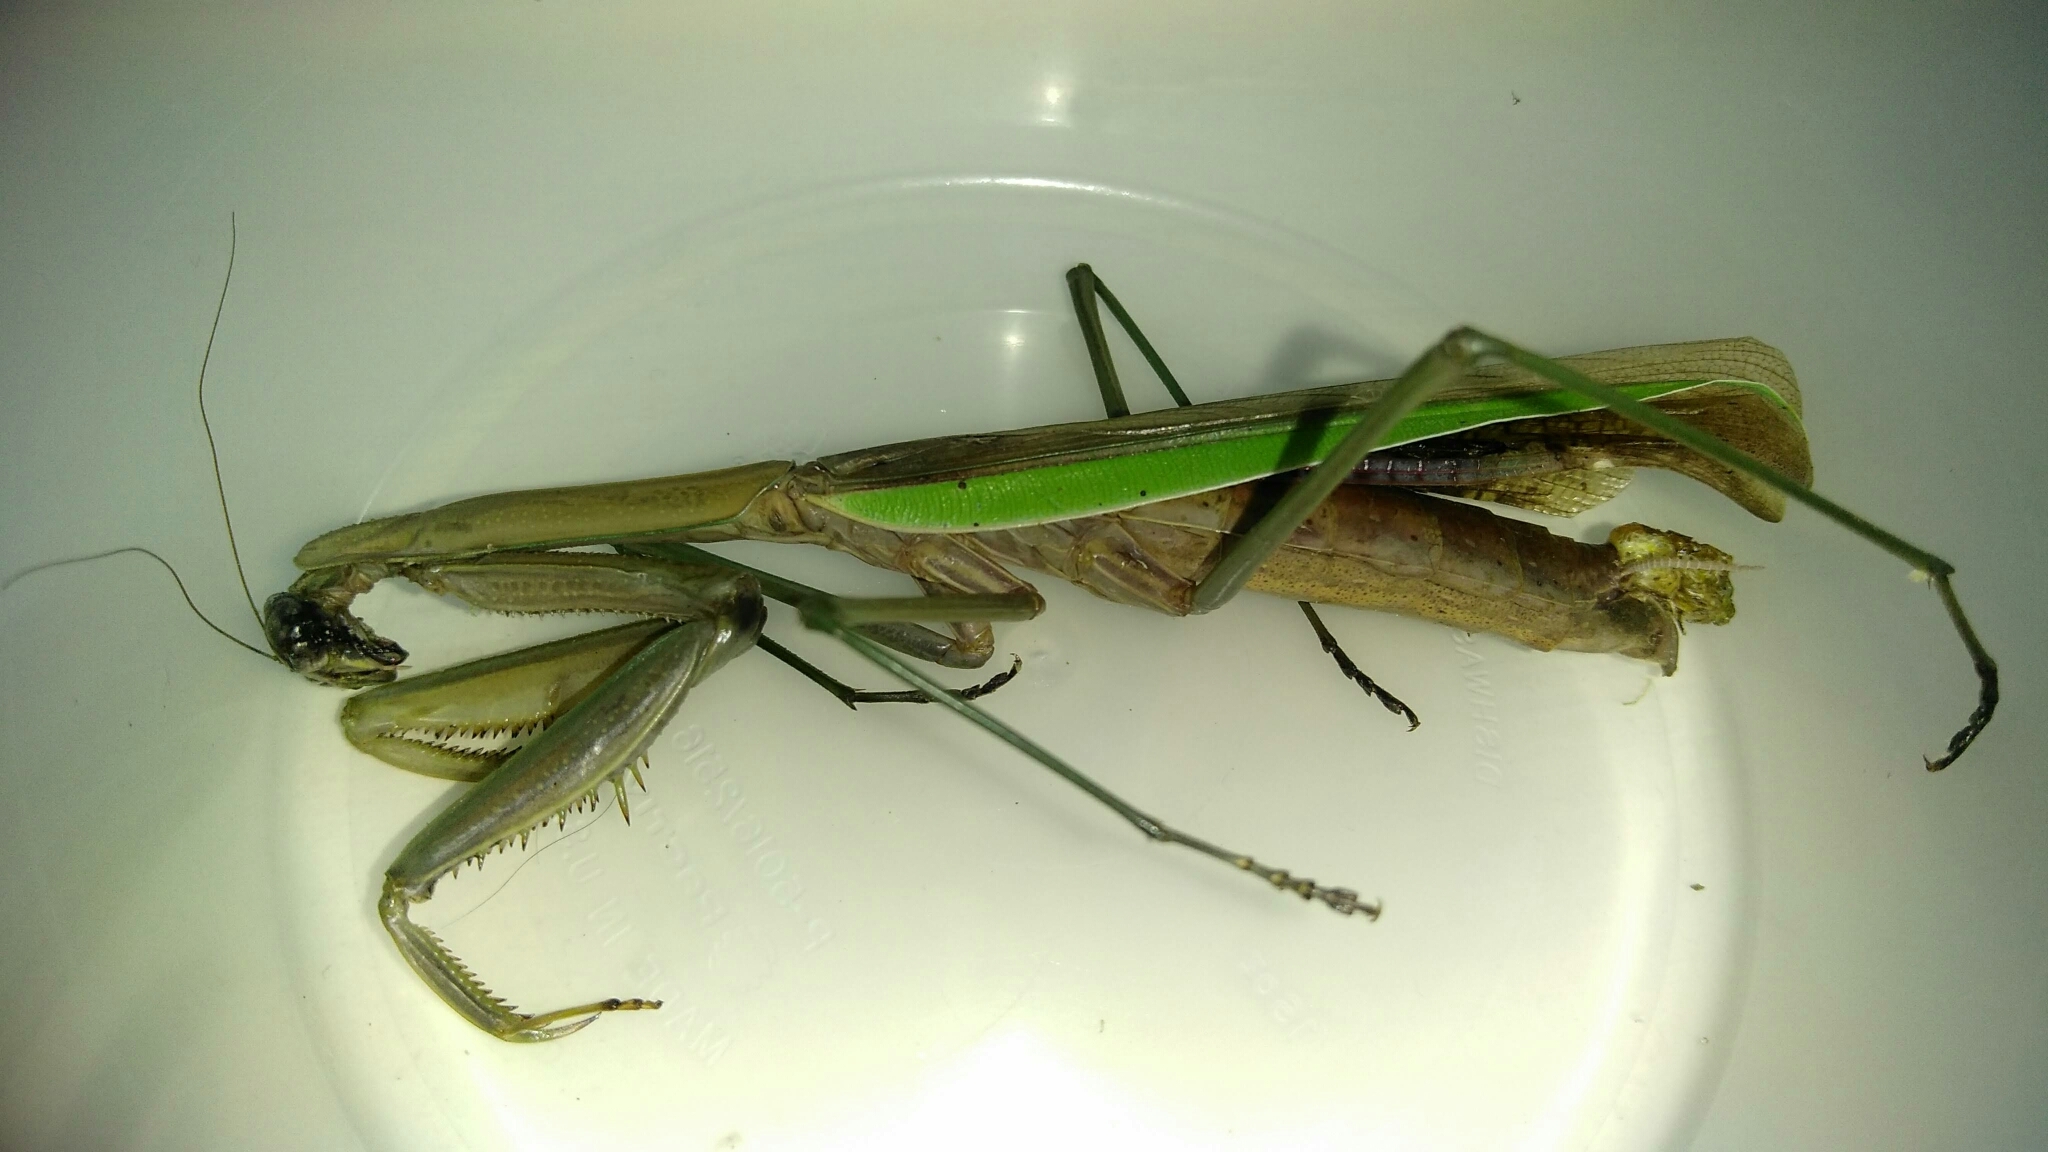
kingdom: Animalia
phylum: Arthropoda
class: Insecta
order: Mantodea
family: Mantidae
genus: Tenodera
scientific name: Tenodera sinensis
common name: Chinese mantis
